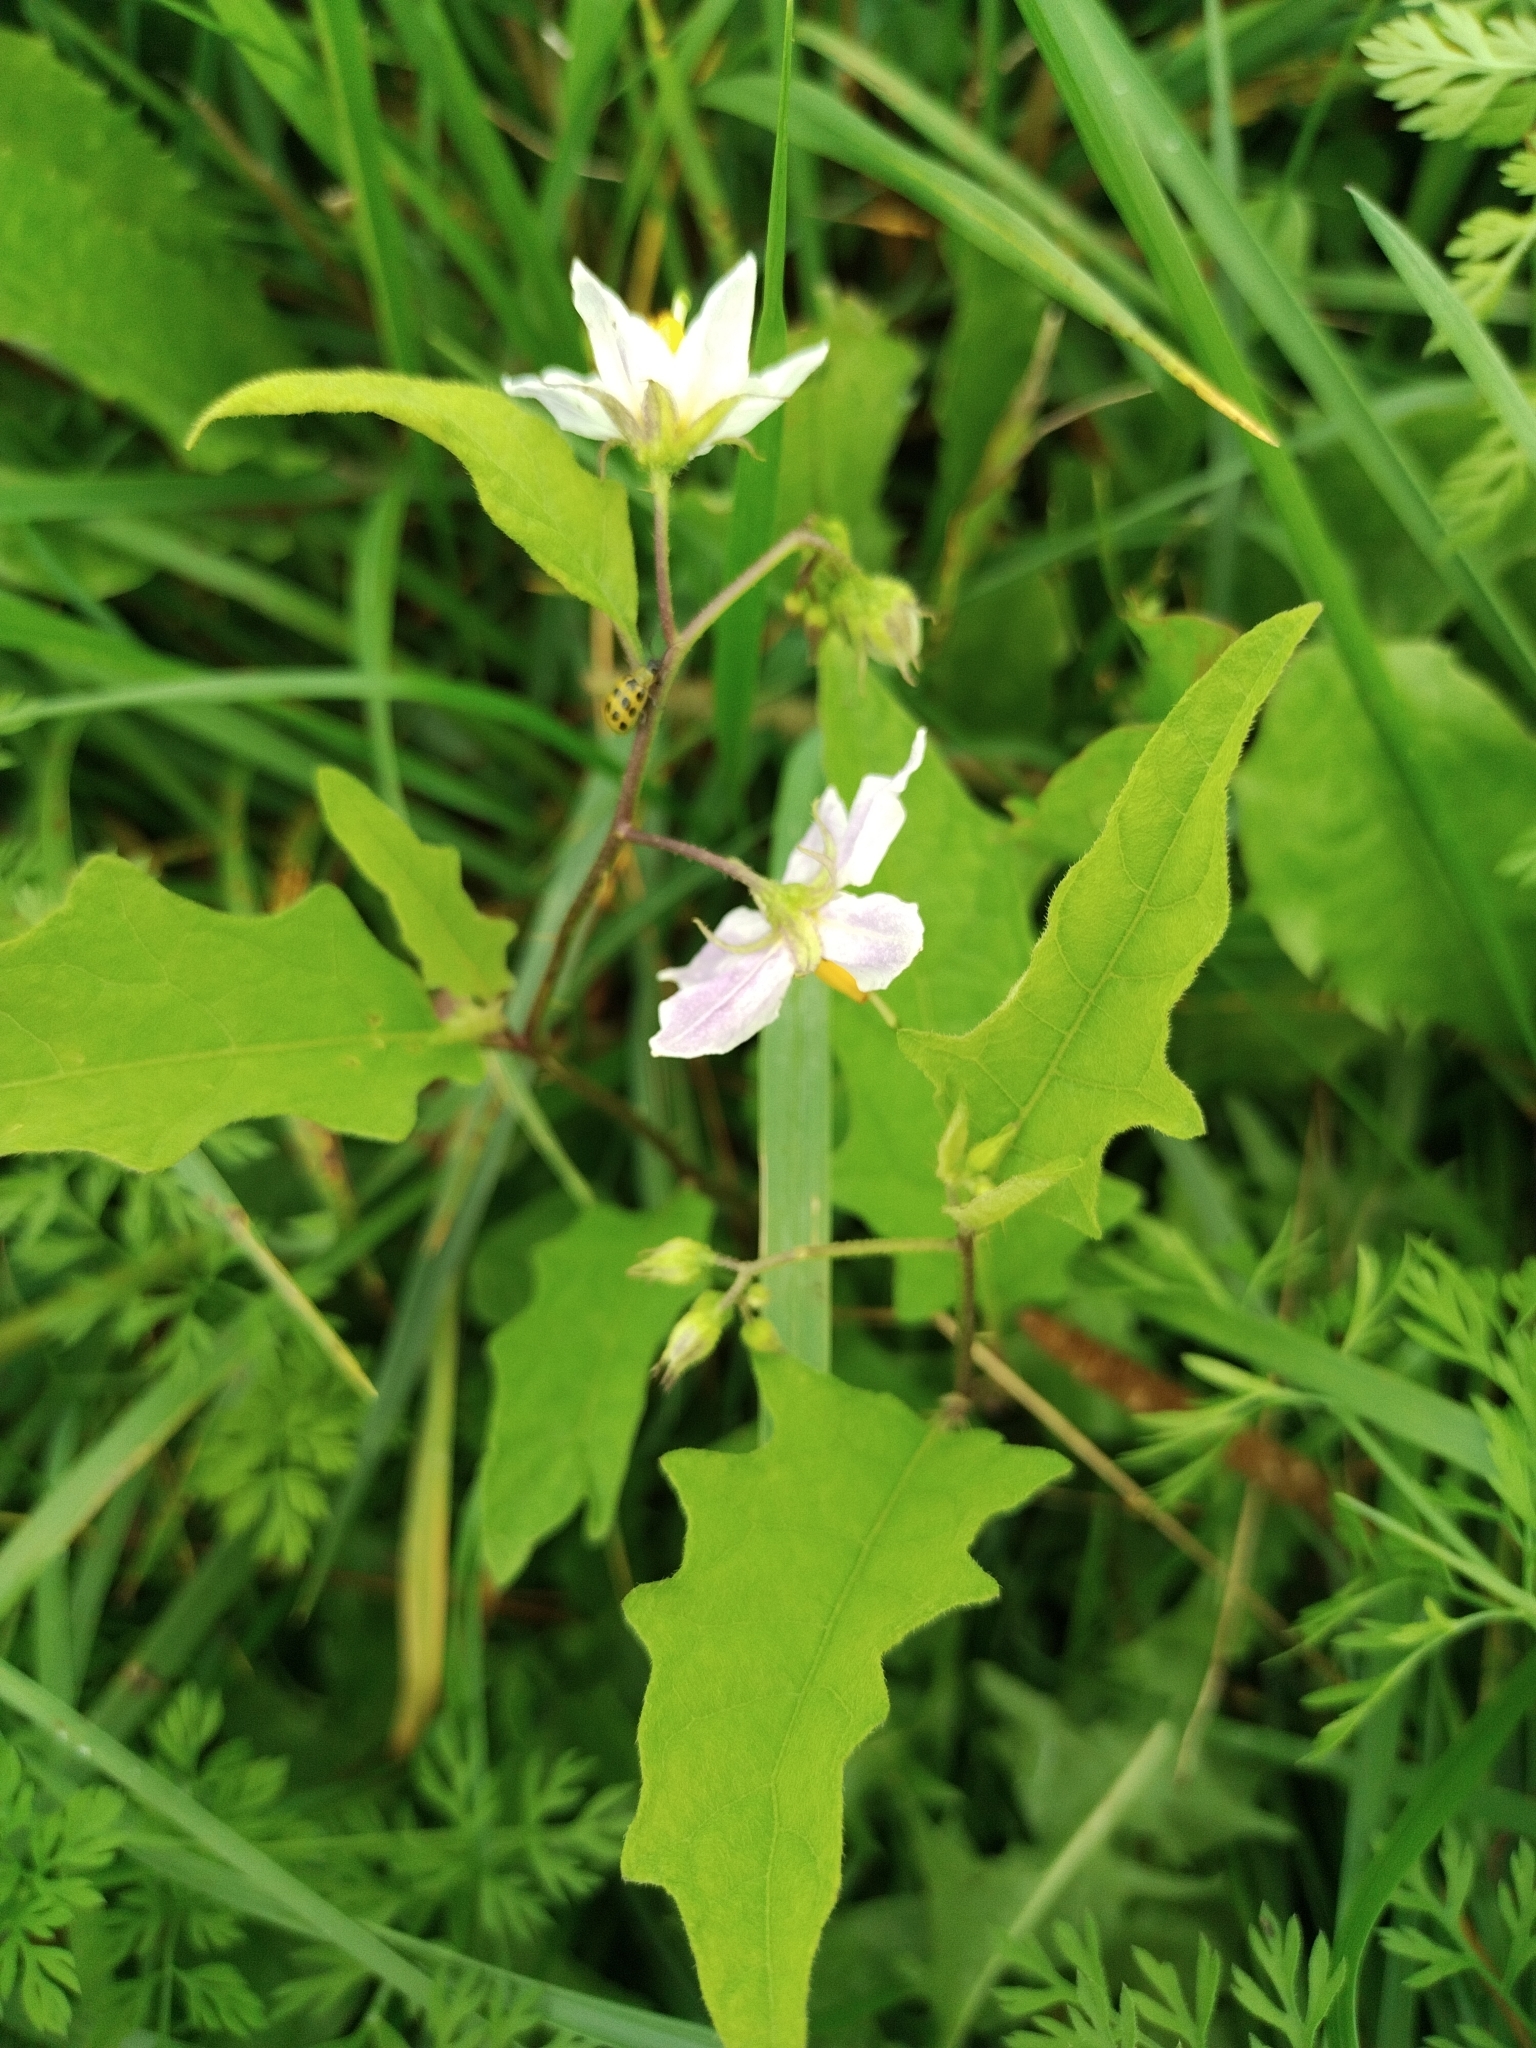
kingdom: Plantae
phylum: Tracheophyta
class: Magnoliopsida
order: Solanales
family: Solanaceae
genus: Solanum
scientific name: Solanum carolinense
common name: Horse-nettle
